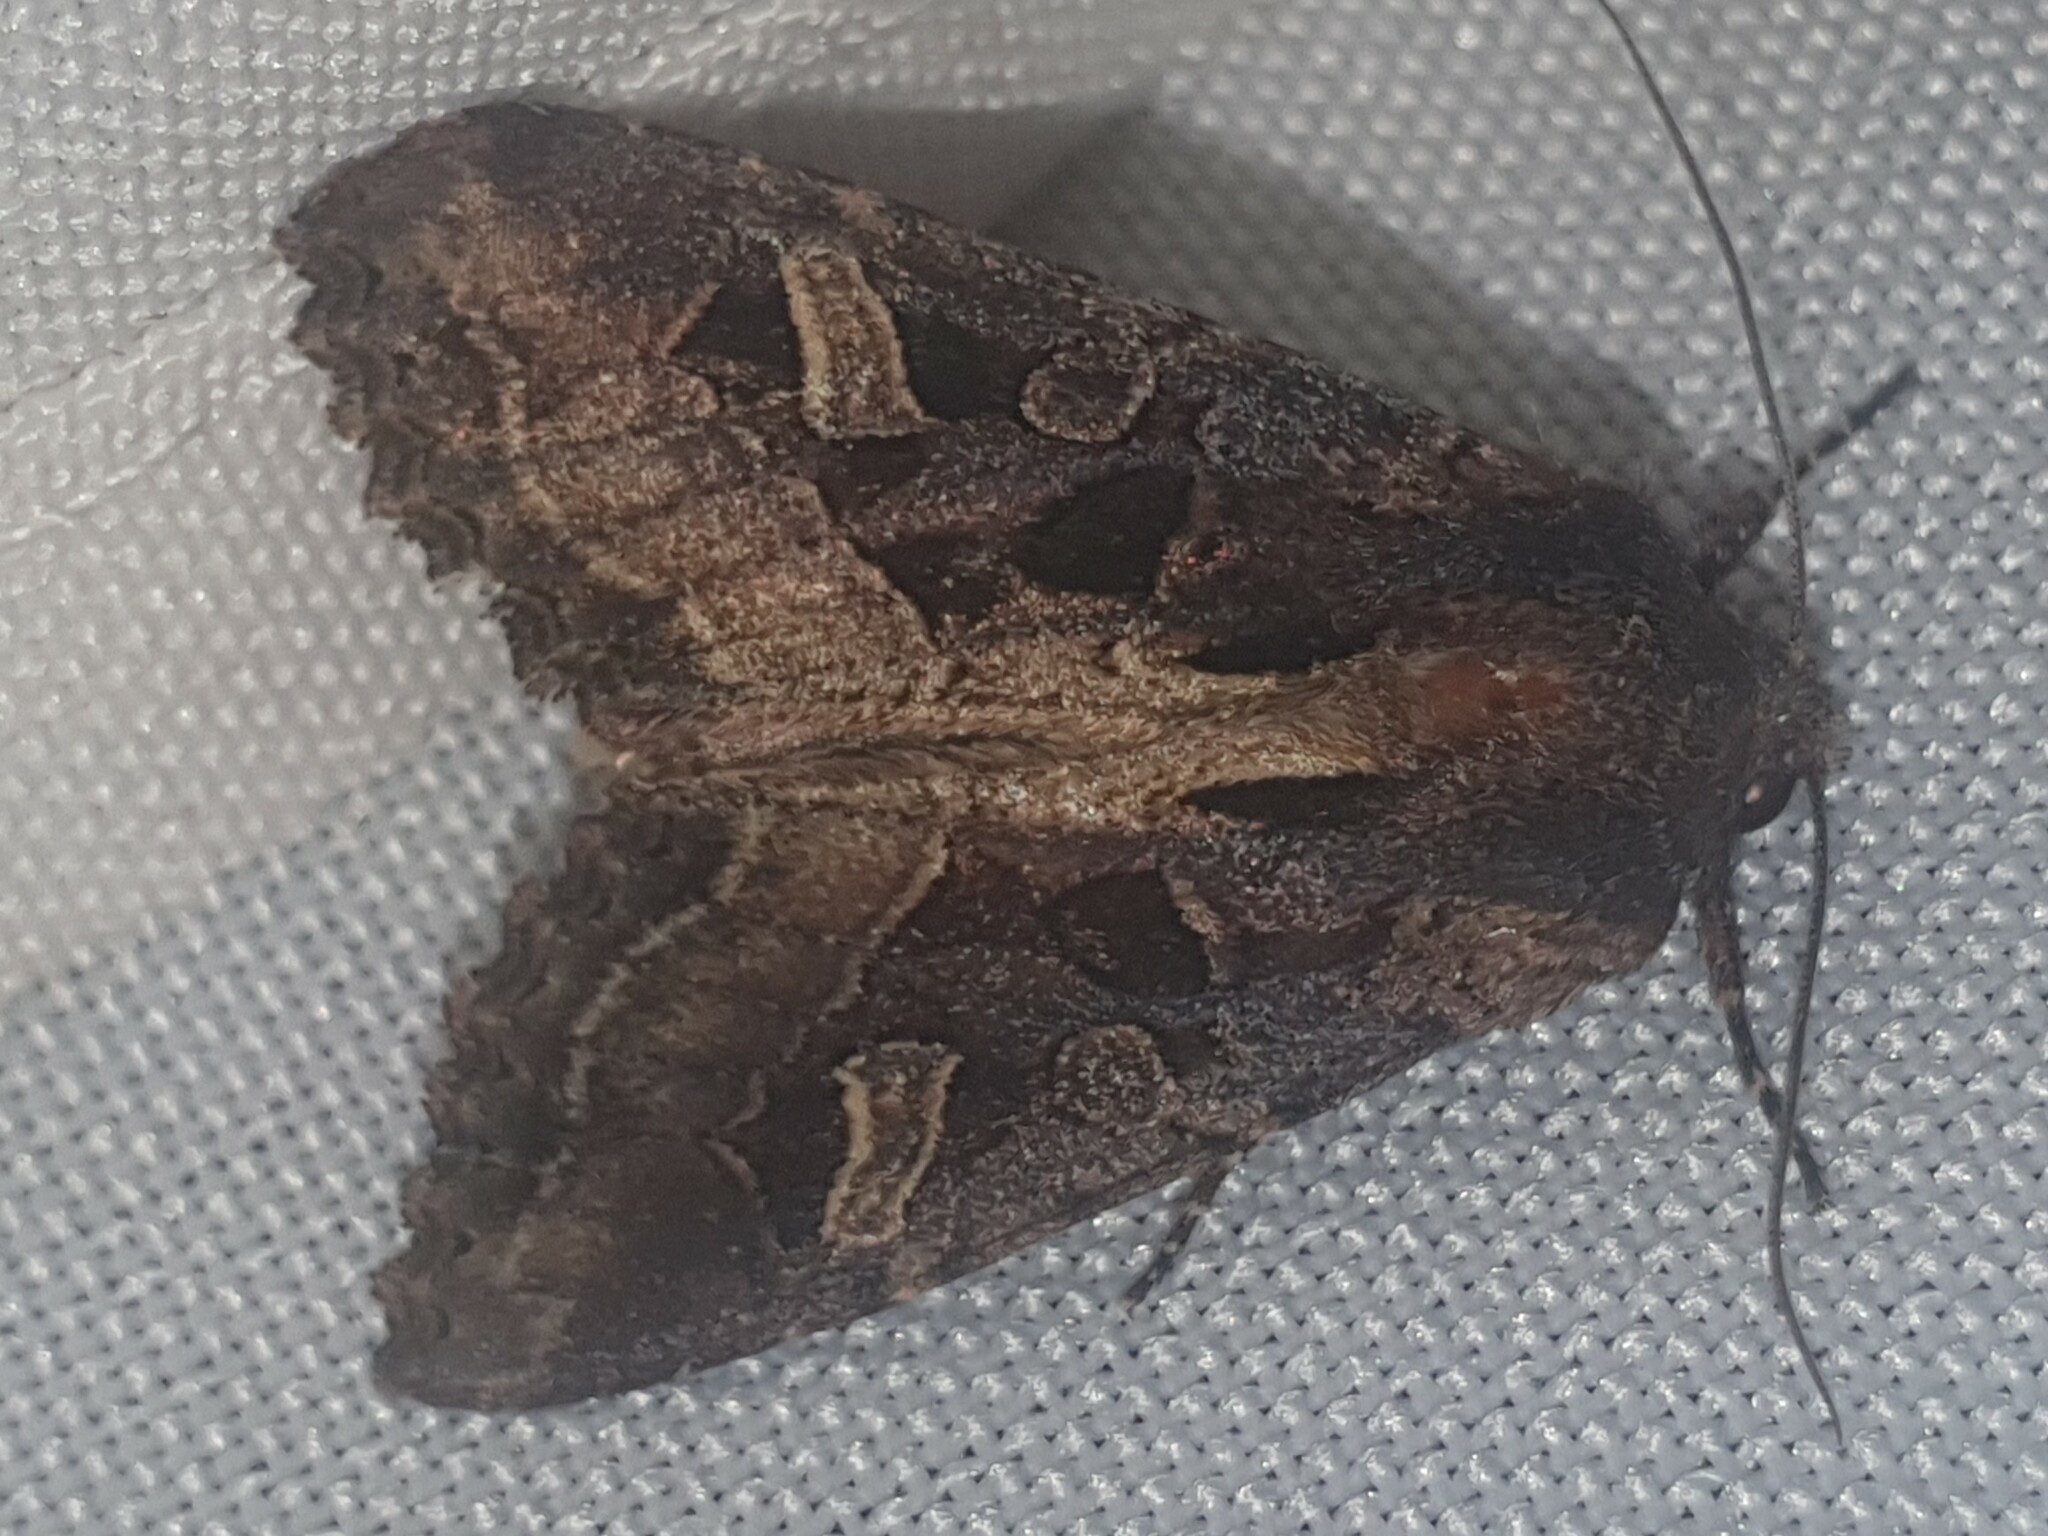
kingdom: Animalia
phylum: Arthropoda
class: Insecta
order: Lepidoptera
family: Noctuidae
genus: Trigonophora
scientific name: Trigonophora jodea
